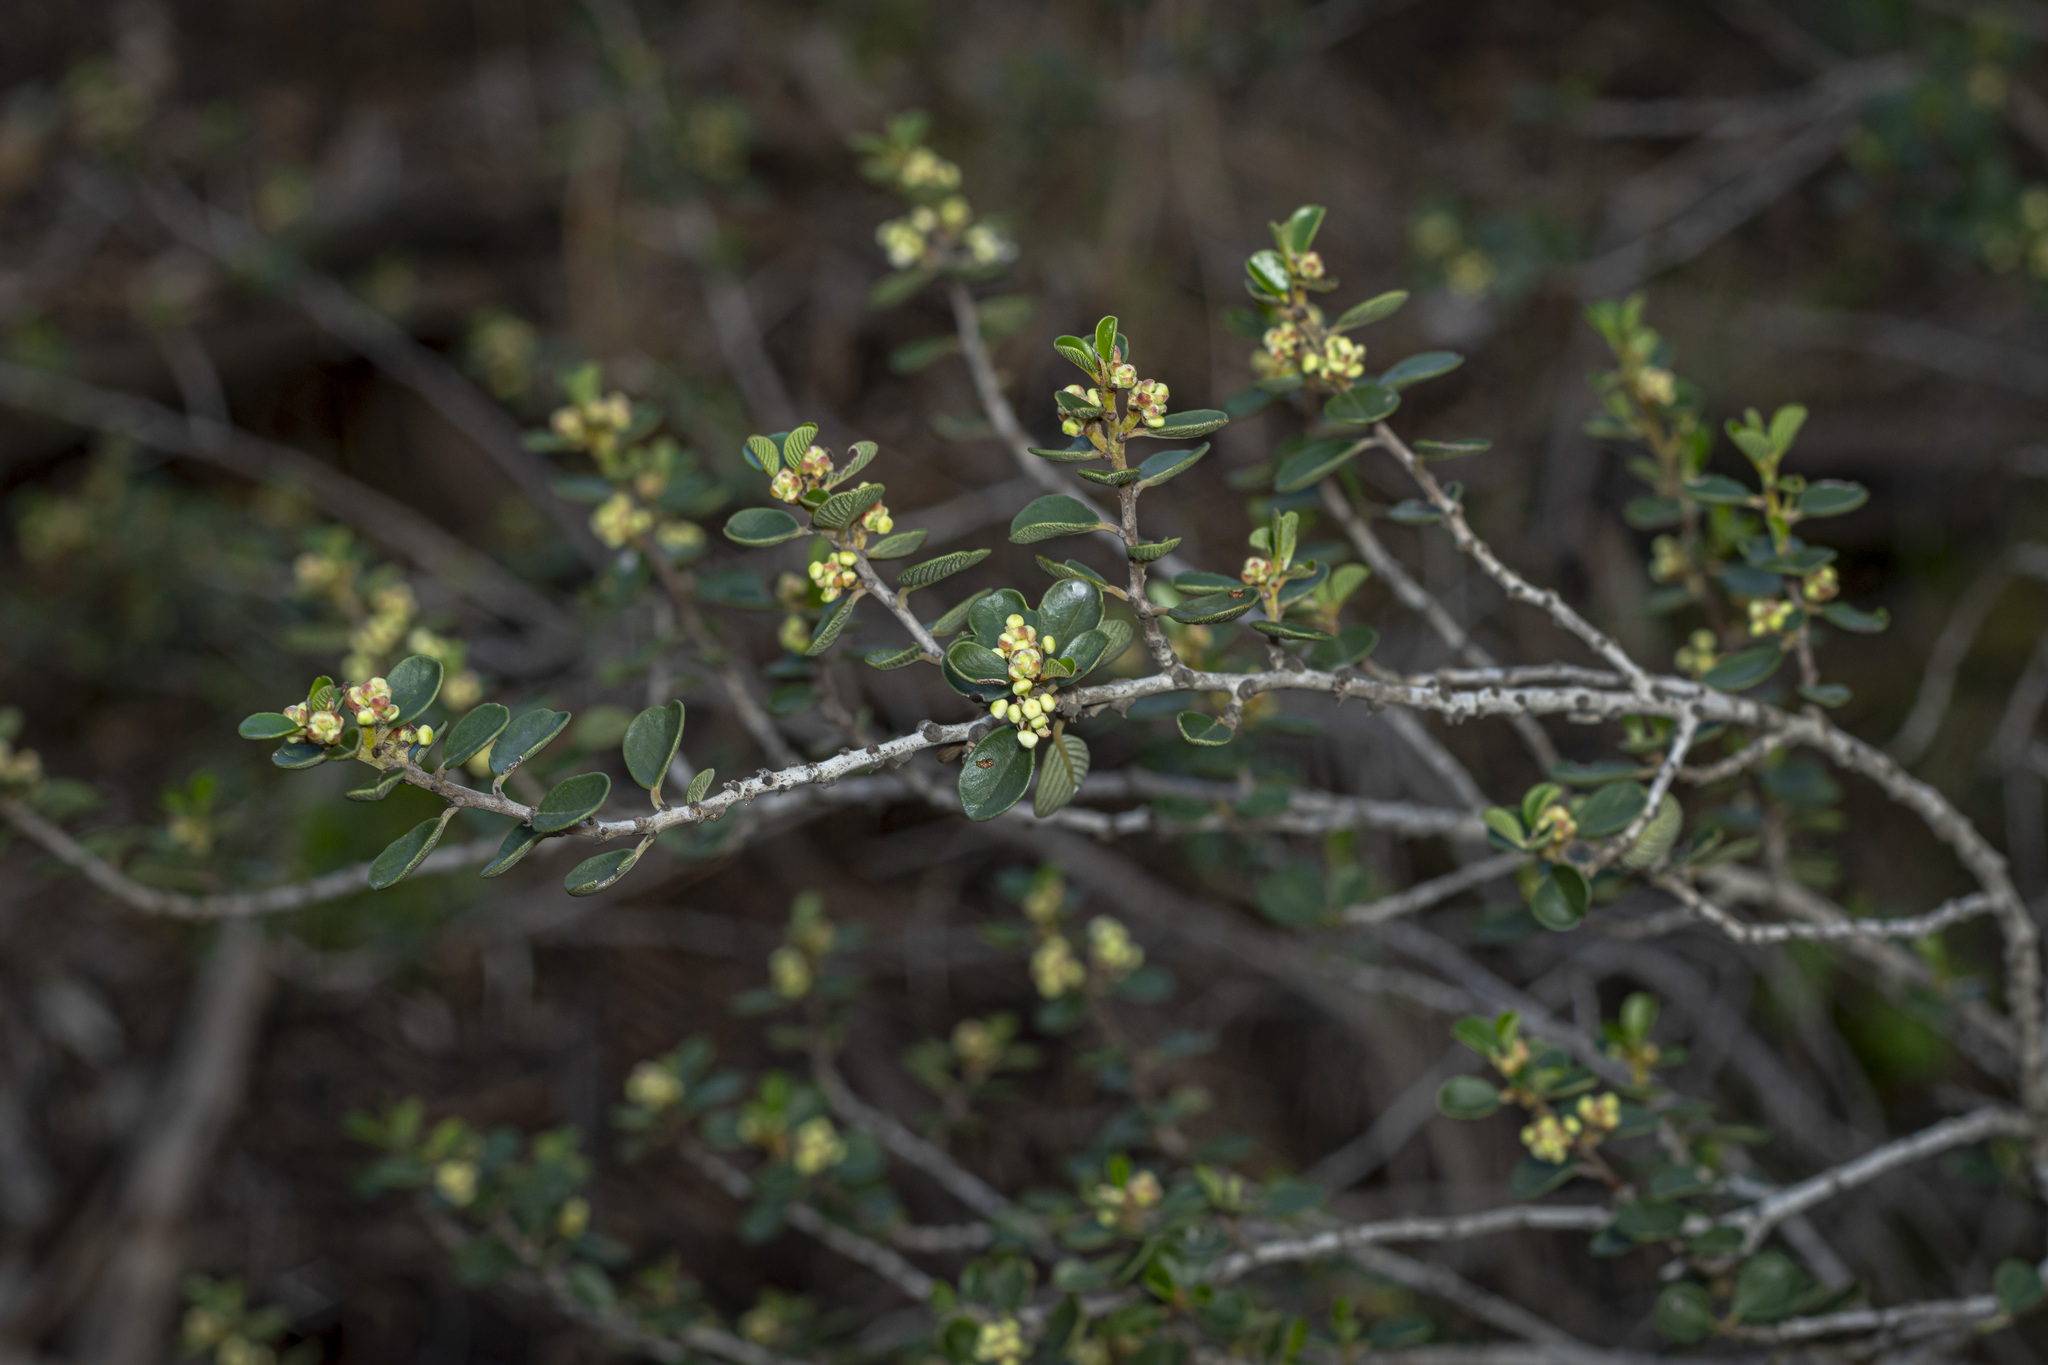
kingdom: Plantae
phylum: Tracheophyta
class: Magnoliopsida
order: Rosales
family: Rhamnaceae
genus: Ceanothus
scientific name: Ceanothus verrucosus
